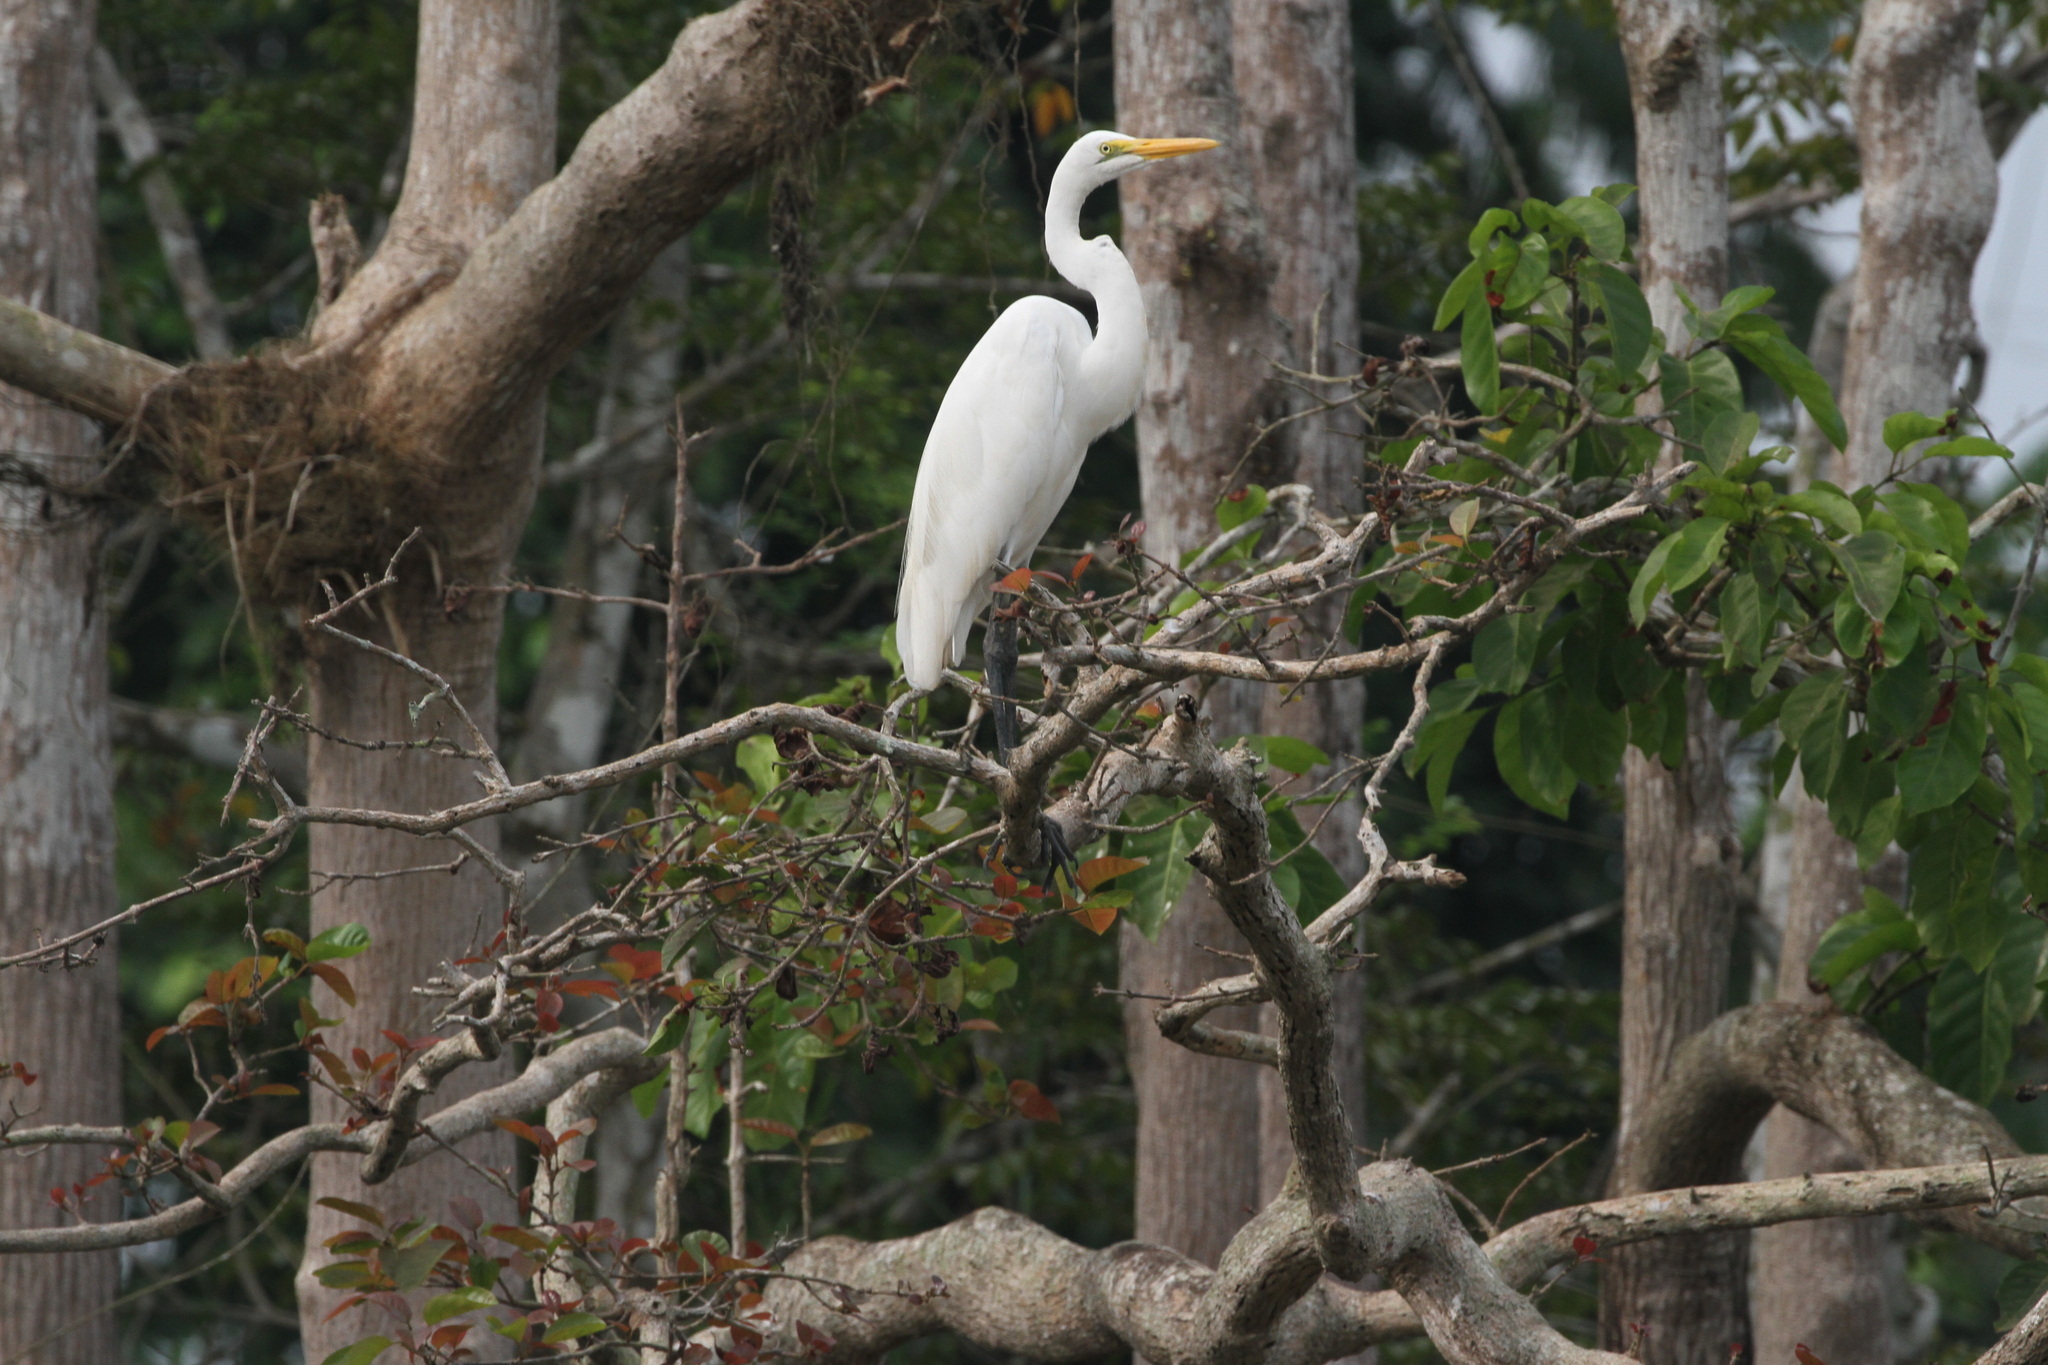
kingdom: Animalia
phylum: Chordata
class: Aves
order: Pelecaniformes
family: Ardeidae
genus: Ardea
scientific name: Ardea alba
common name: Great egret
